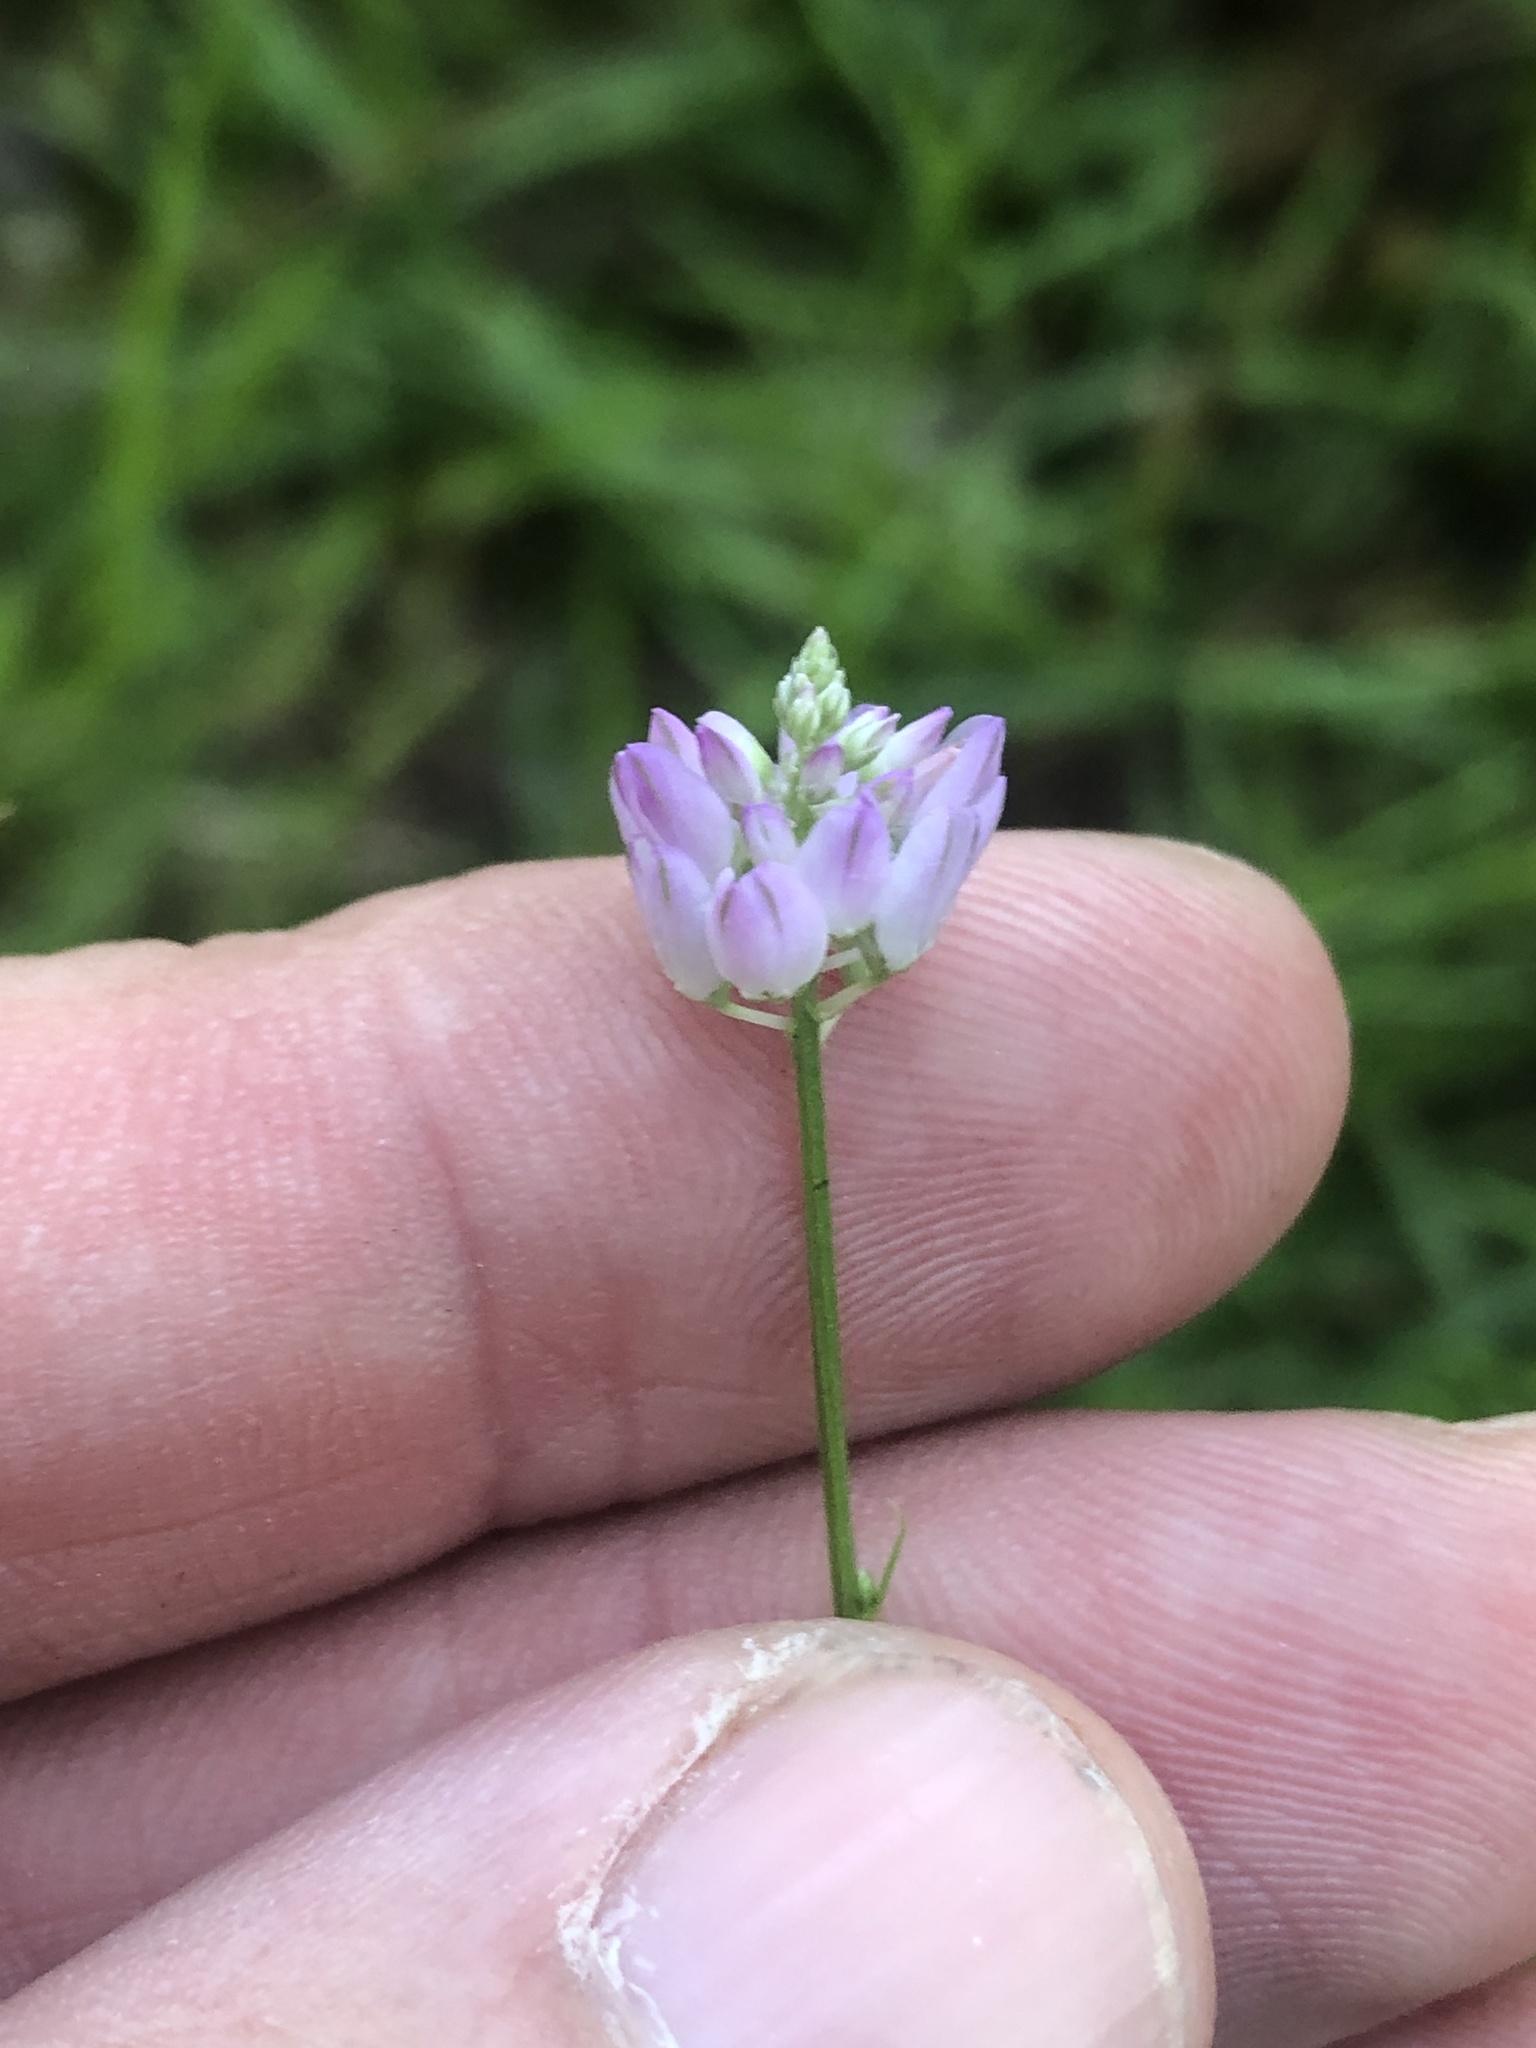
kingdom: Plantae
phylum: Tracheophyta
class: Magnoliopsida
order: Fabales
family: Polygalaceae
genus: Polygala
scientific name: Polygala mariana
